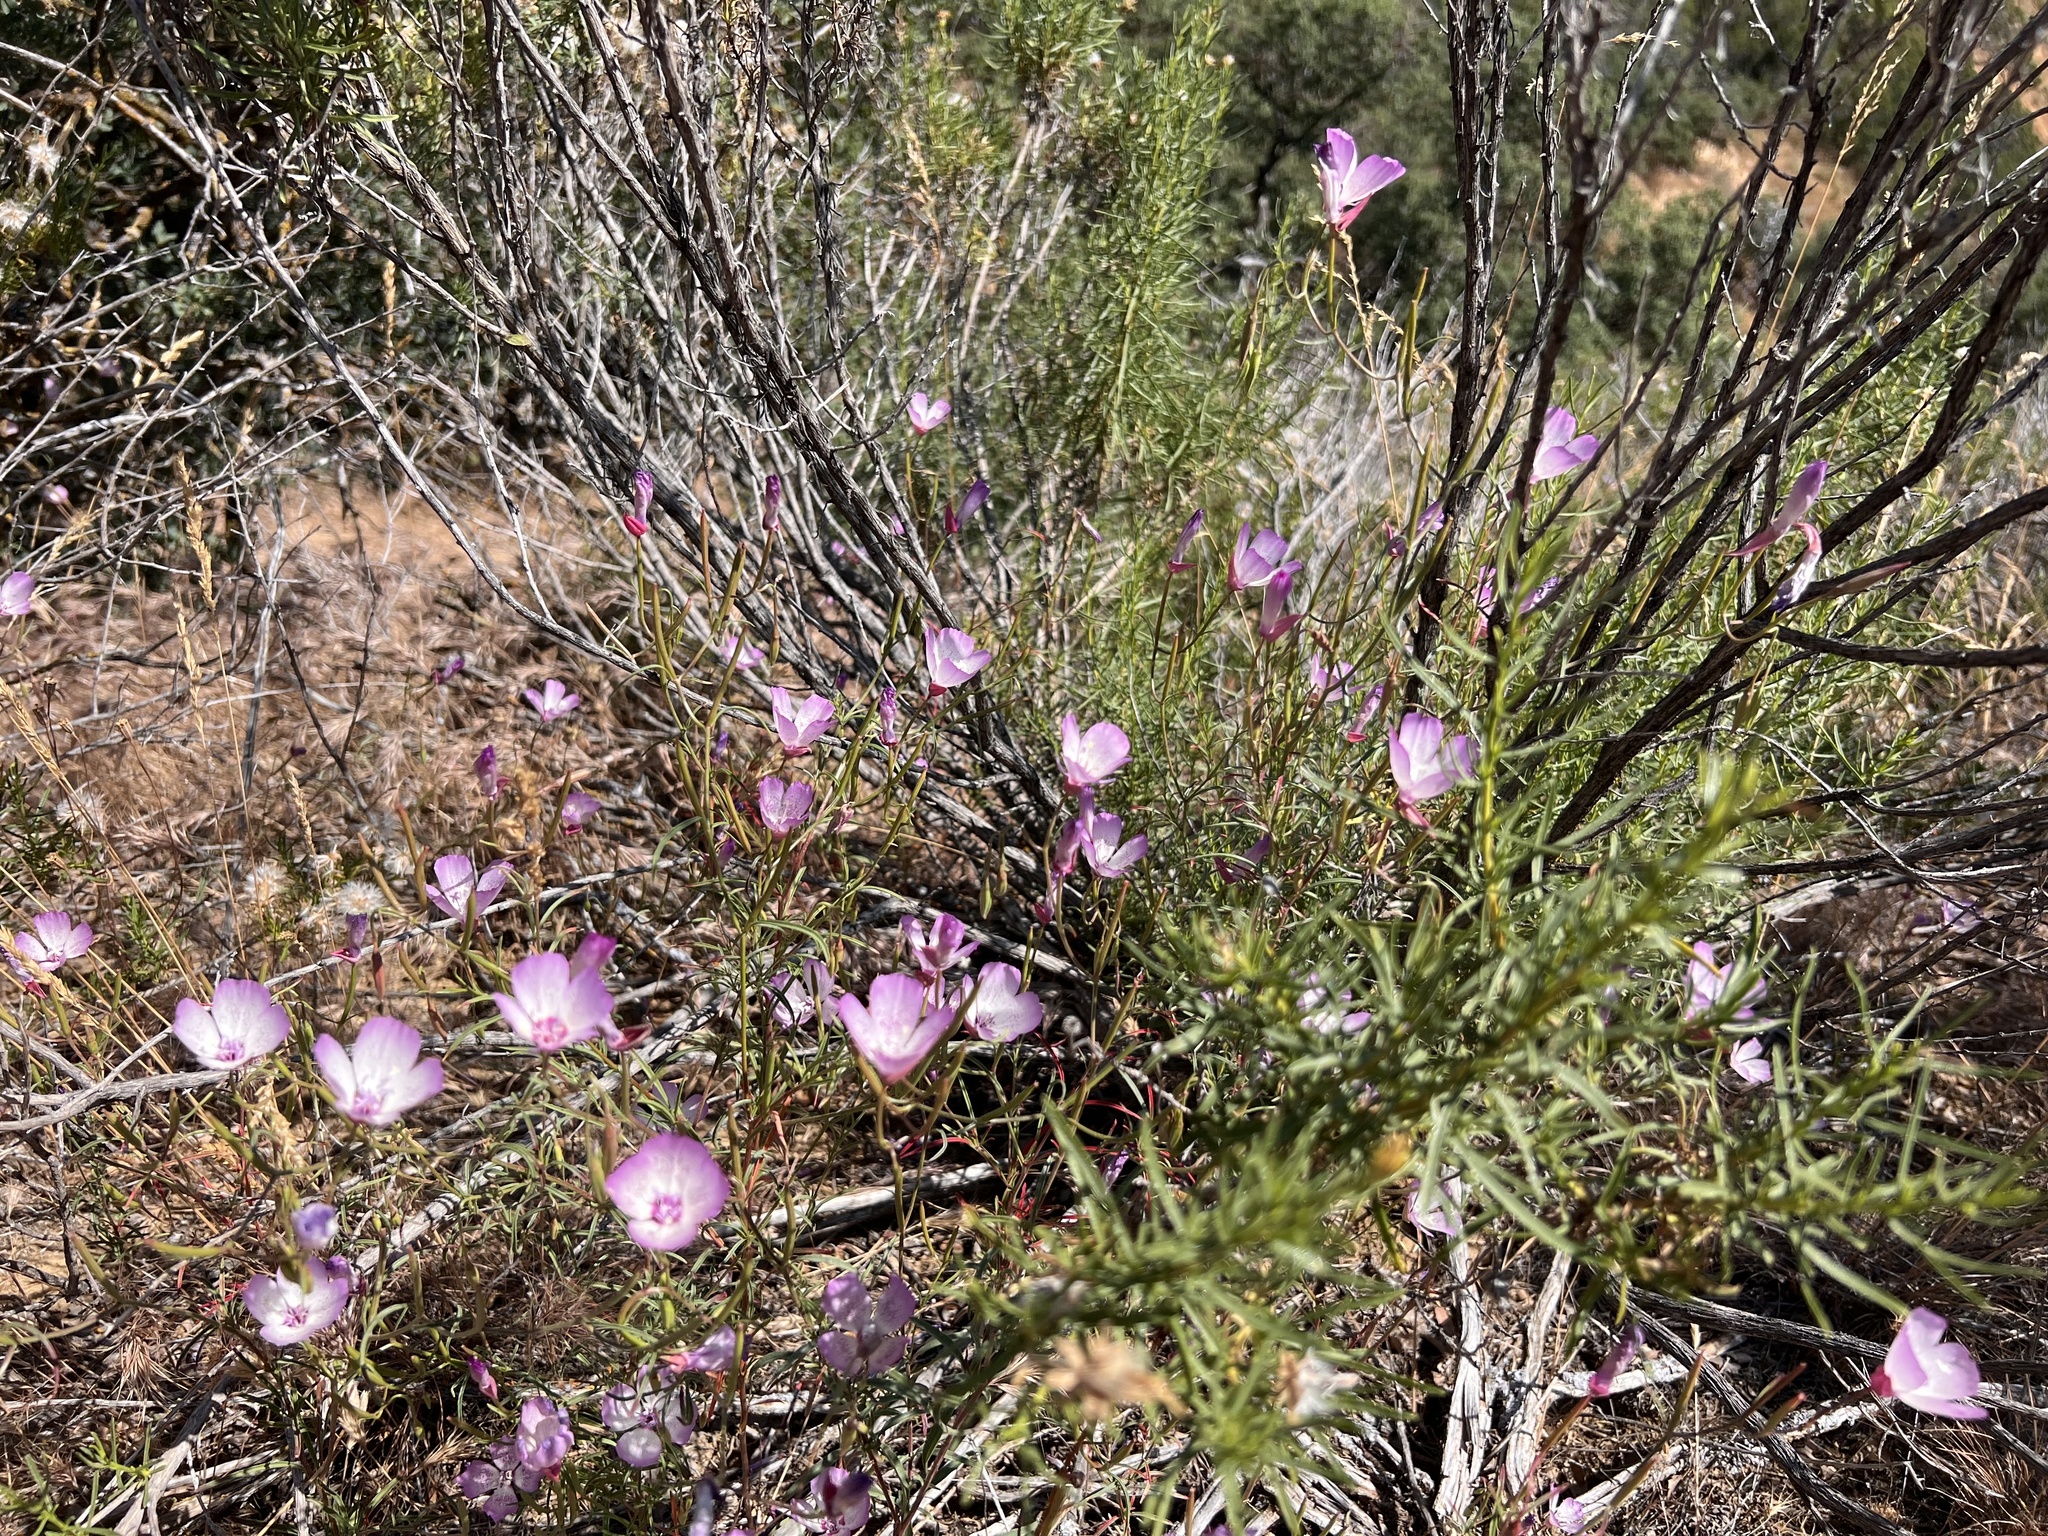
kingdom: Plantae
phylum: Tracheophyta
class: Magnoliopsida
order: Myrtales
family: Onagraceae
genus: Clarkia
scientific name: Clarkia cylindrica
